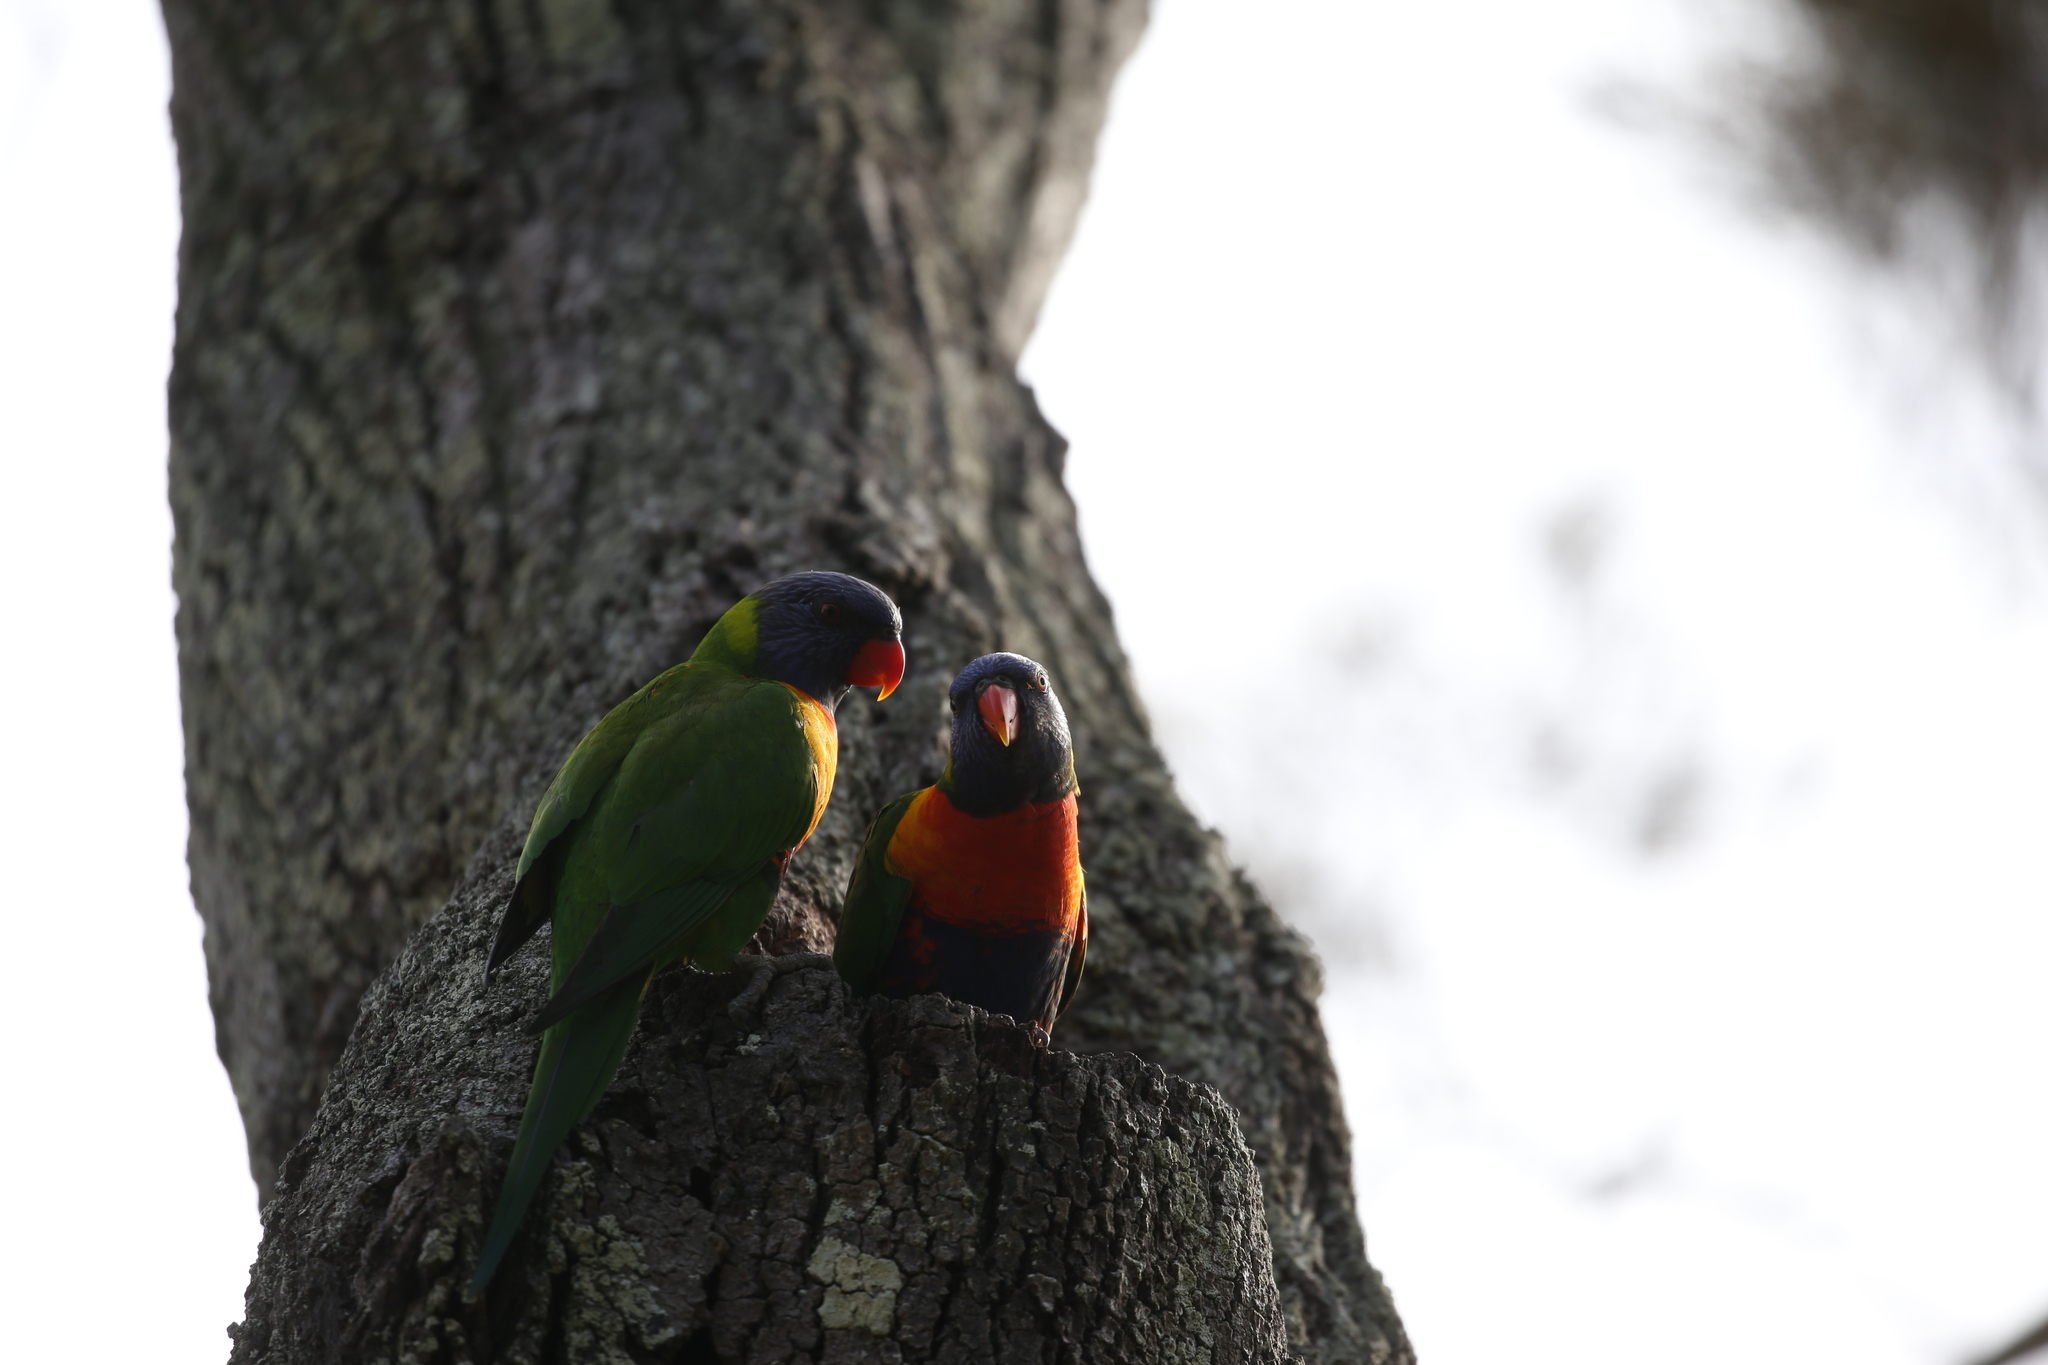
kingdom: Animalia
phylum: Chordata
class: Aves
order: Psittaciformes
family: Psittacidae
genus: Trichoglossus
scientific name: Trichoglossus haematodus
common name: Coconut lorikeet
